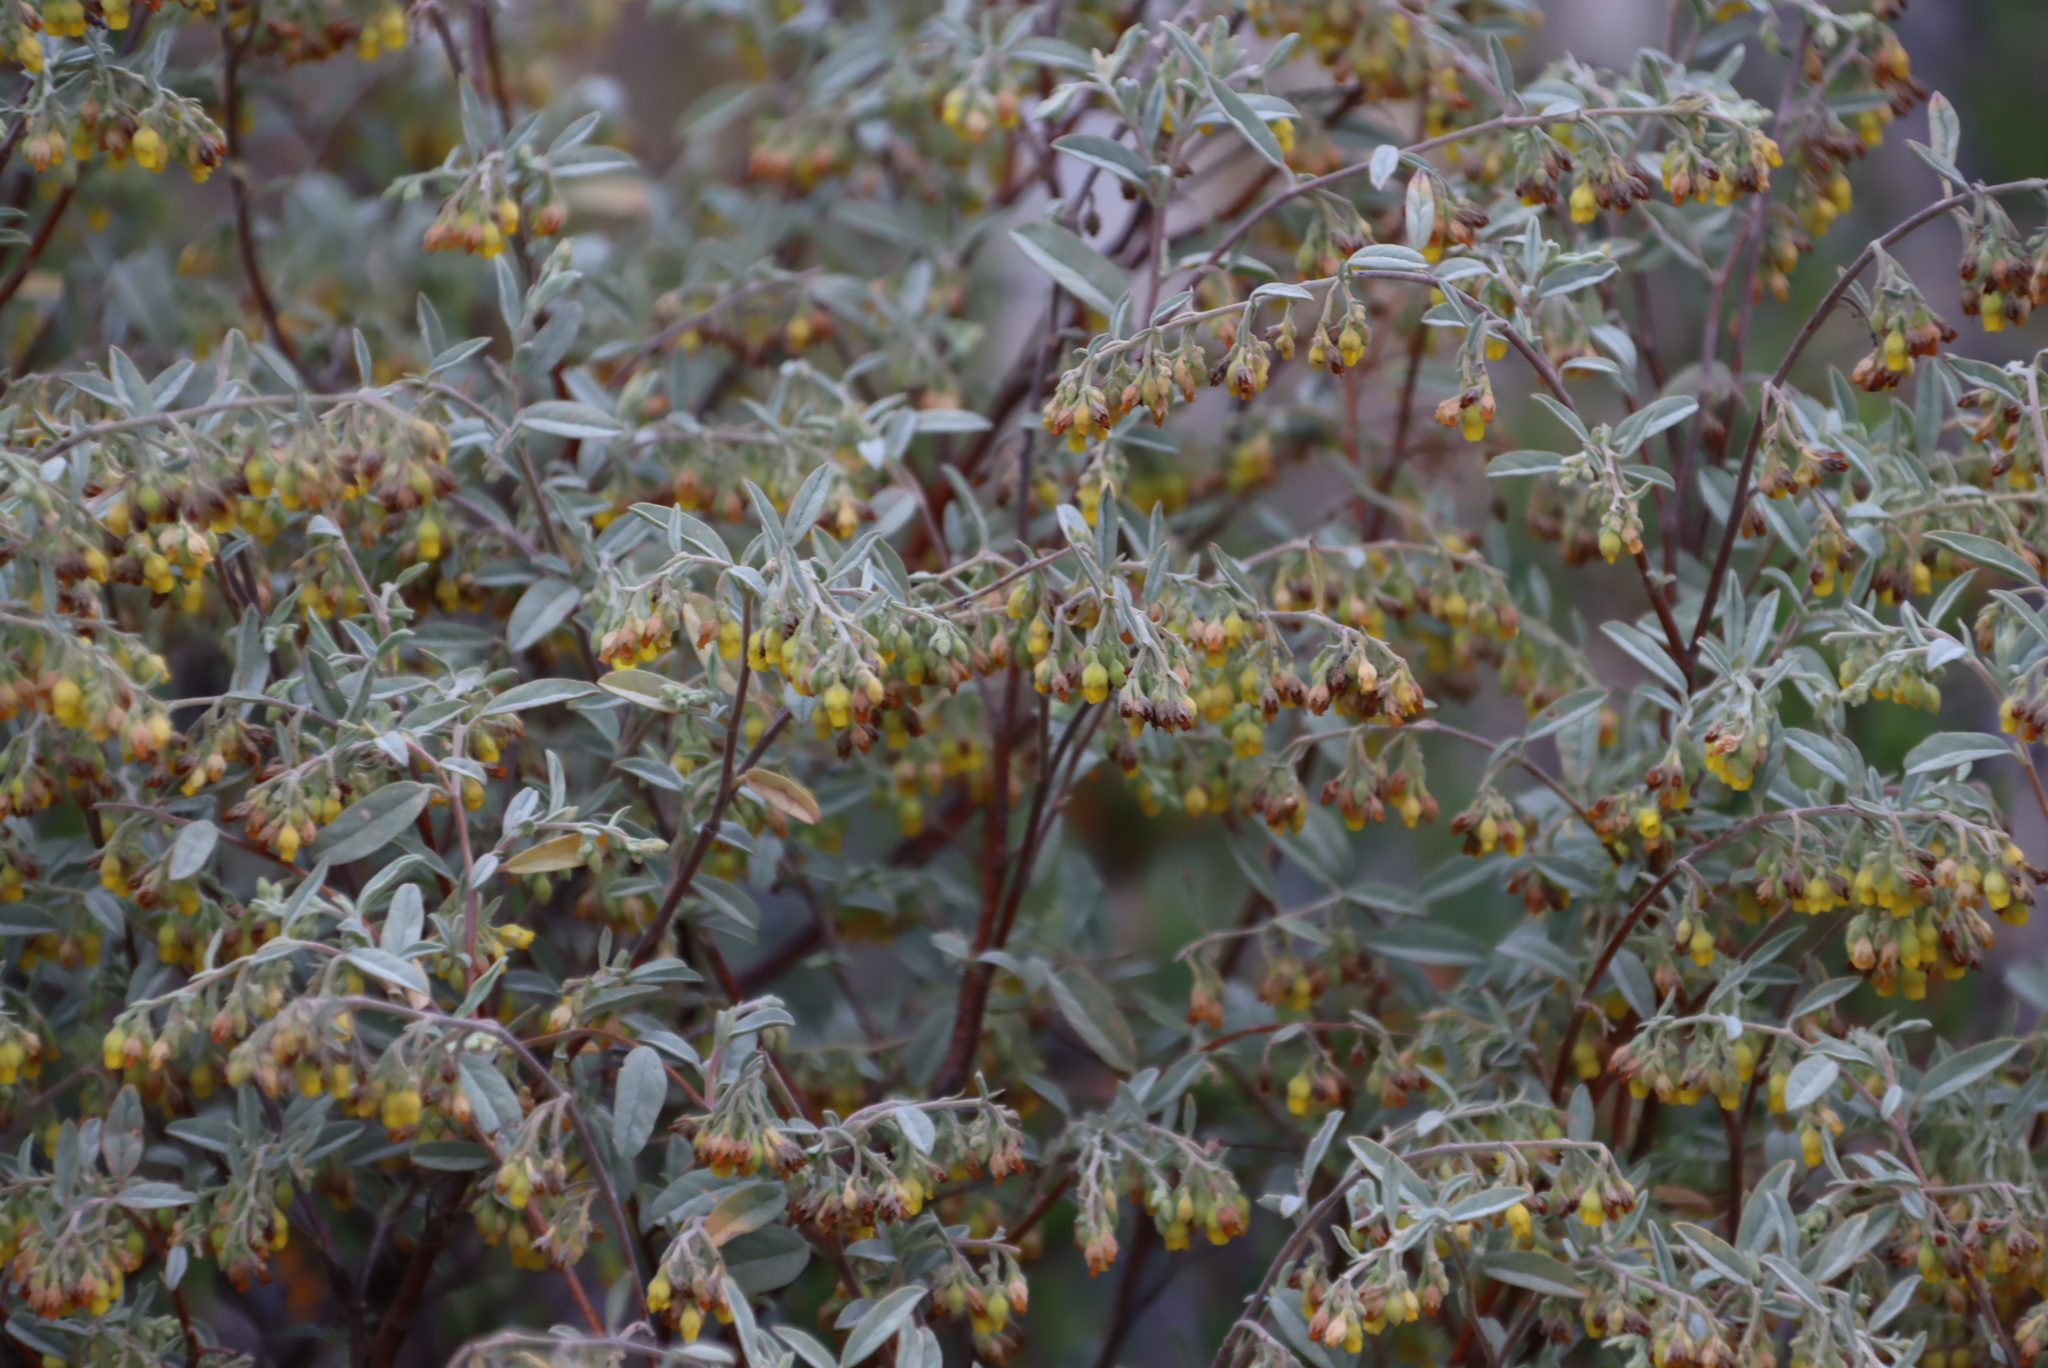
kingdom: Plantae
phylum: Tracheophyta
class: Magnoliopsida
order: Malvales
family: Malvaceae
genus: Hermannia
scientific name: Hermannia holosericea
